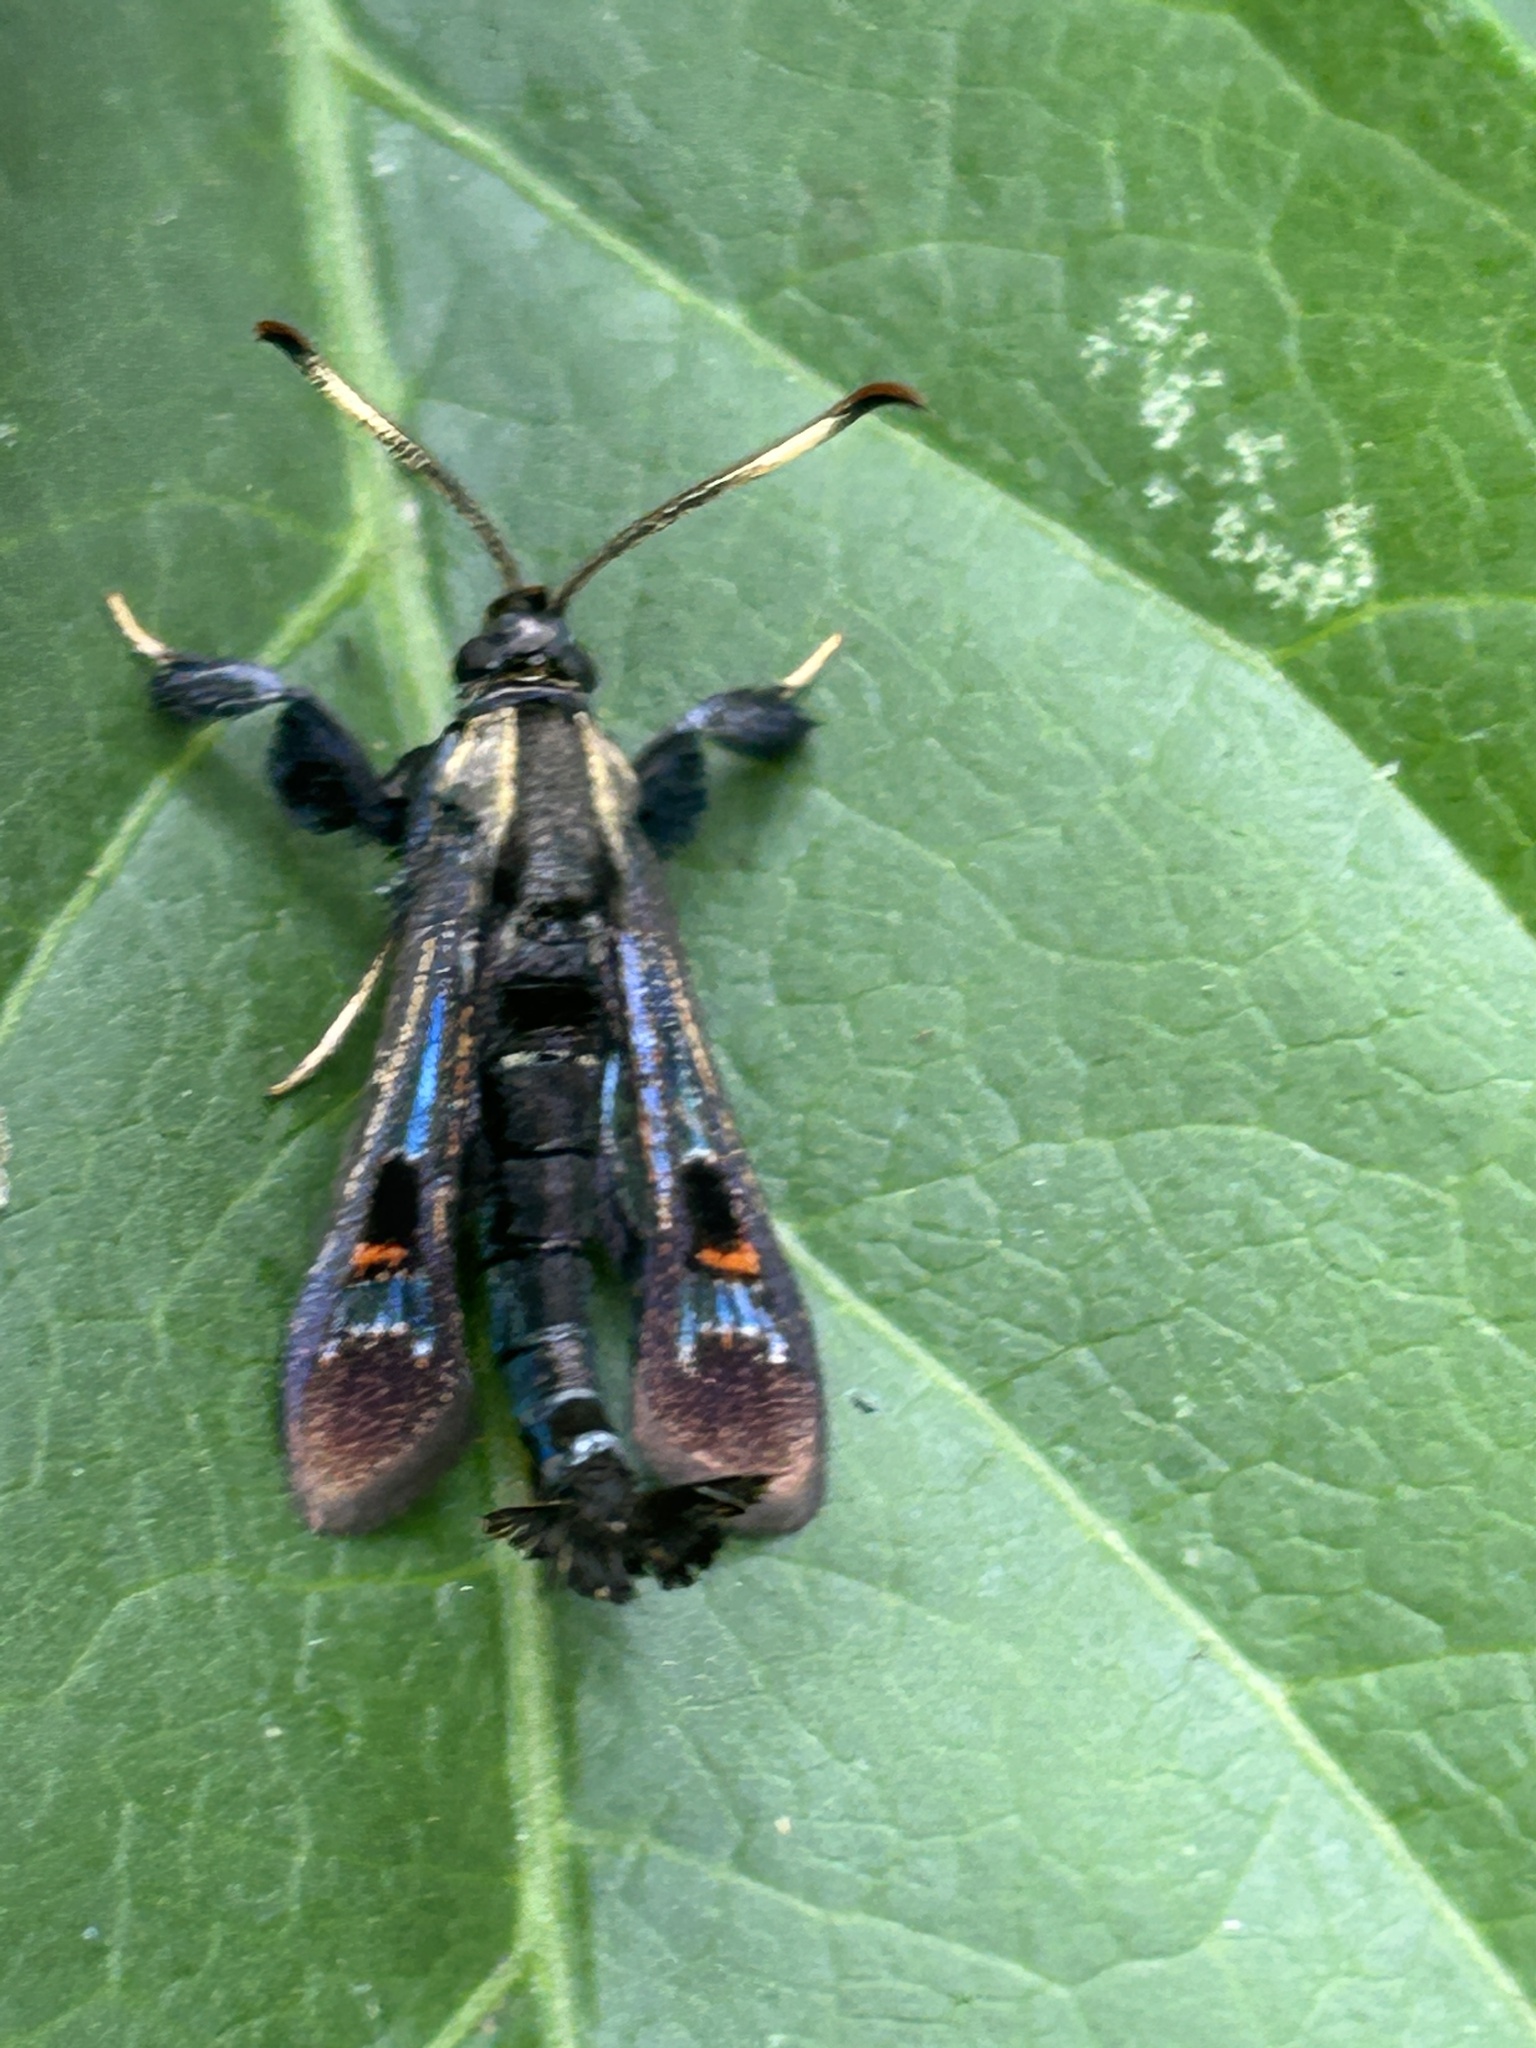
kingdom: Animalia
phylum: Arthropoda
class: Insecta
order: Lepidoptera
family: Sesiidae
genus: Albuna
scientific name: Albuna fraxini
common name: Virginia creeper clearwing
